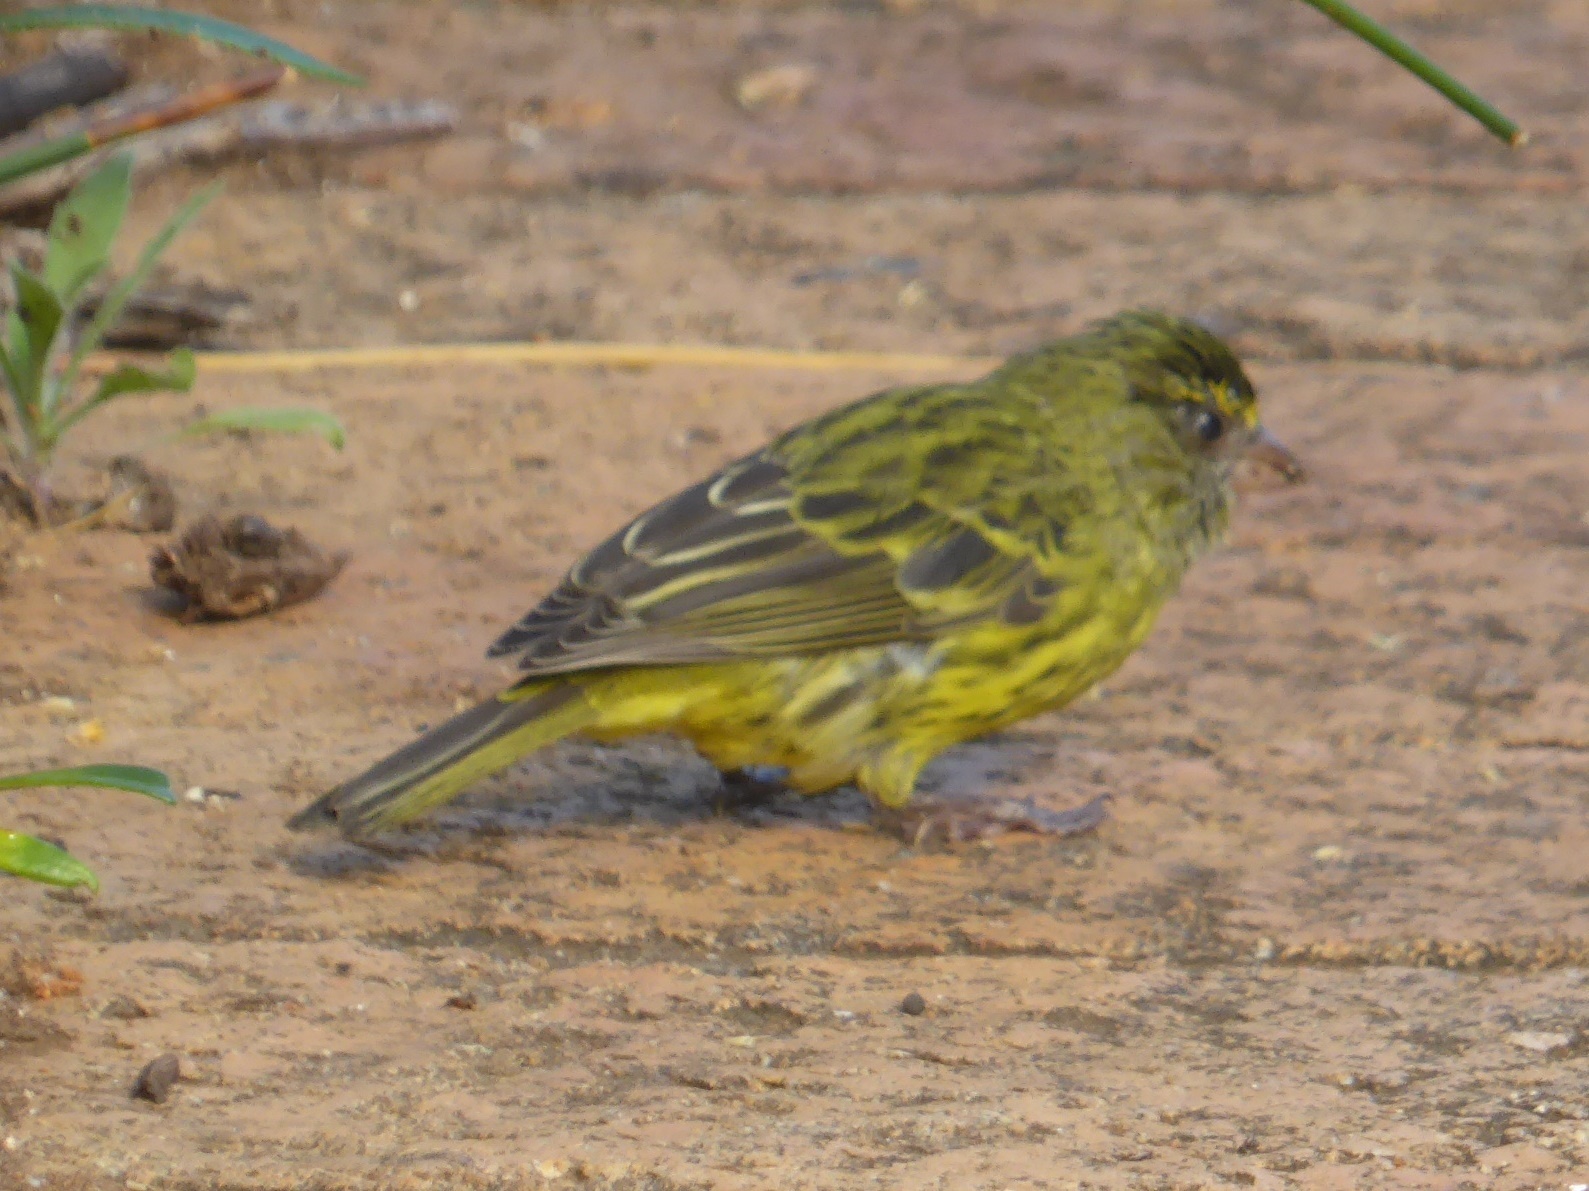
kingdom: Animalia
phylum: Chordata
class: Aves
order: Passeriformes
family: Fringillidae
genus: Crithagra
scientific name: Crithagra scotops
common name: Forest canary
